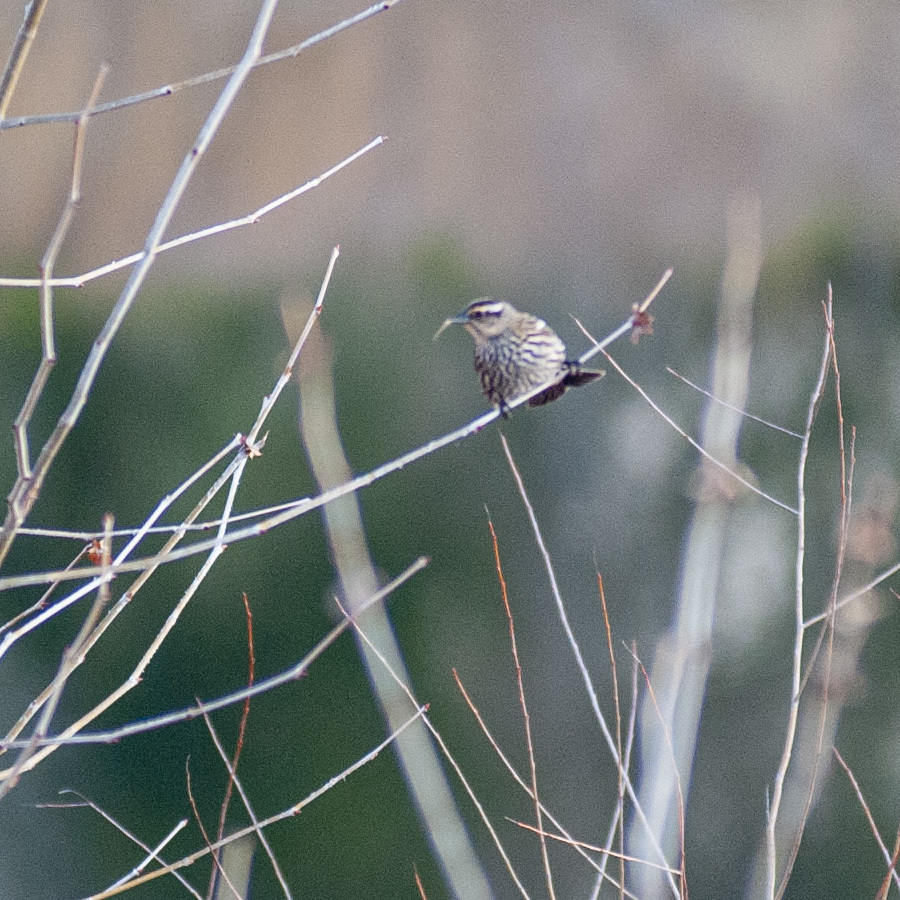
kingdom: Animalia
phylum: Chordata
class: Aves
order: Passeriformes
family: Icteridae
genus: Agelaius
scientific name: Agelaius phoeniceus
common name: Red-winged blackbird
